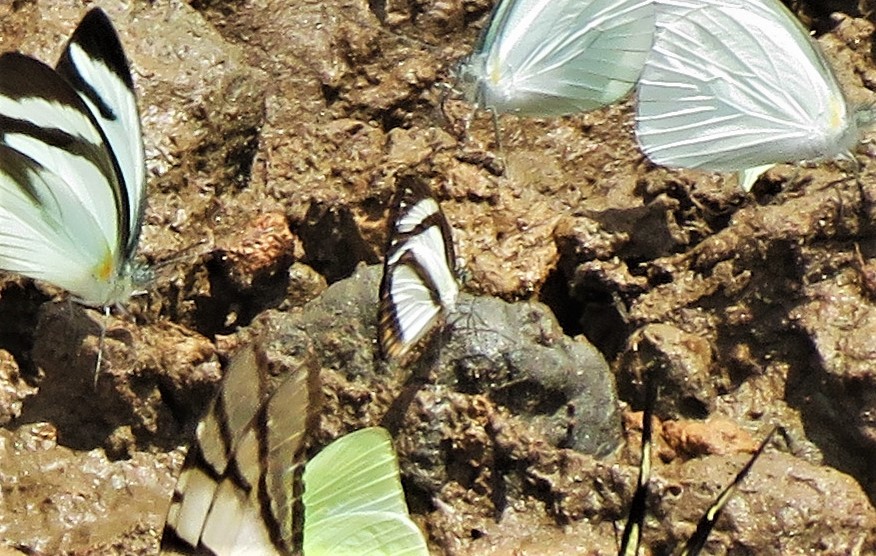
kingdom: Animalia
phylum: Arthropoda
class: Insecta
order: Lepidoptera
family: Pieridae
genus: Itaballia
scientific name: Itaballia pandosia
